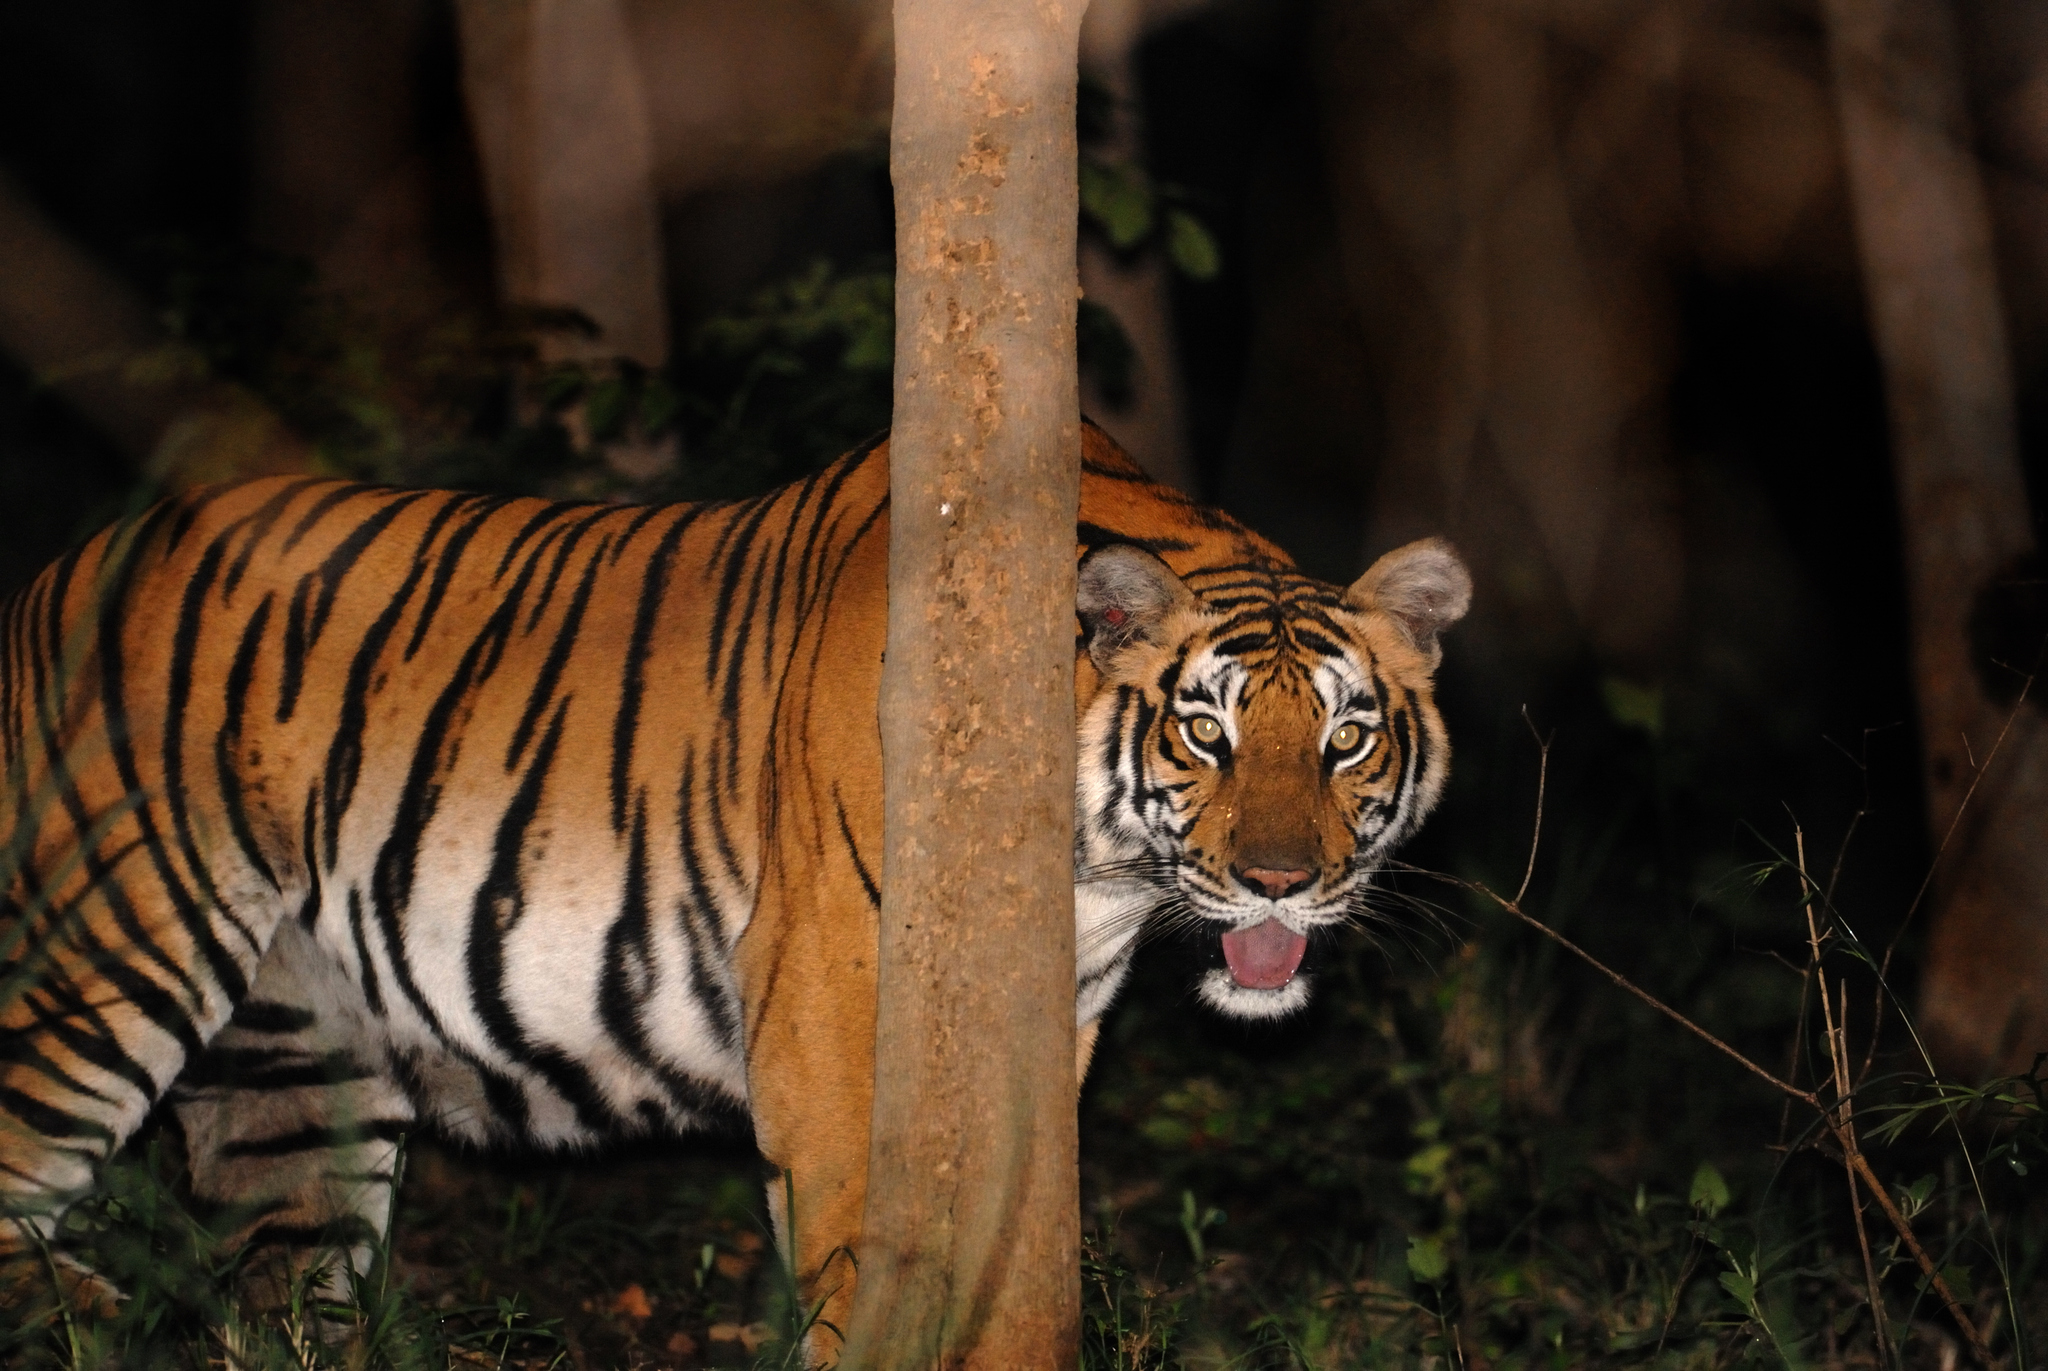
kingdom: Animalia
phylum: Chordata
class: Mammalia
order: Carnivora
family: Felidae
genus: Panthera
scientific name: Panthera tigris
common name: Tiger
